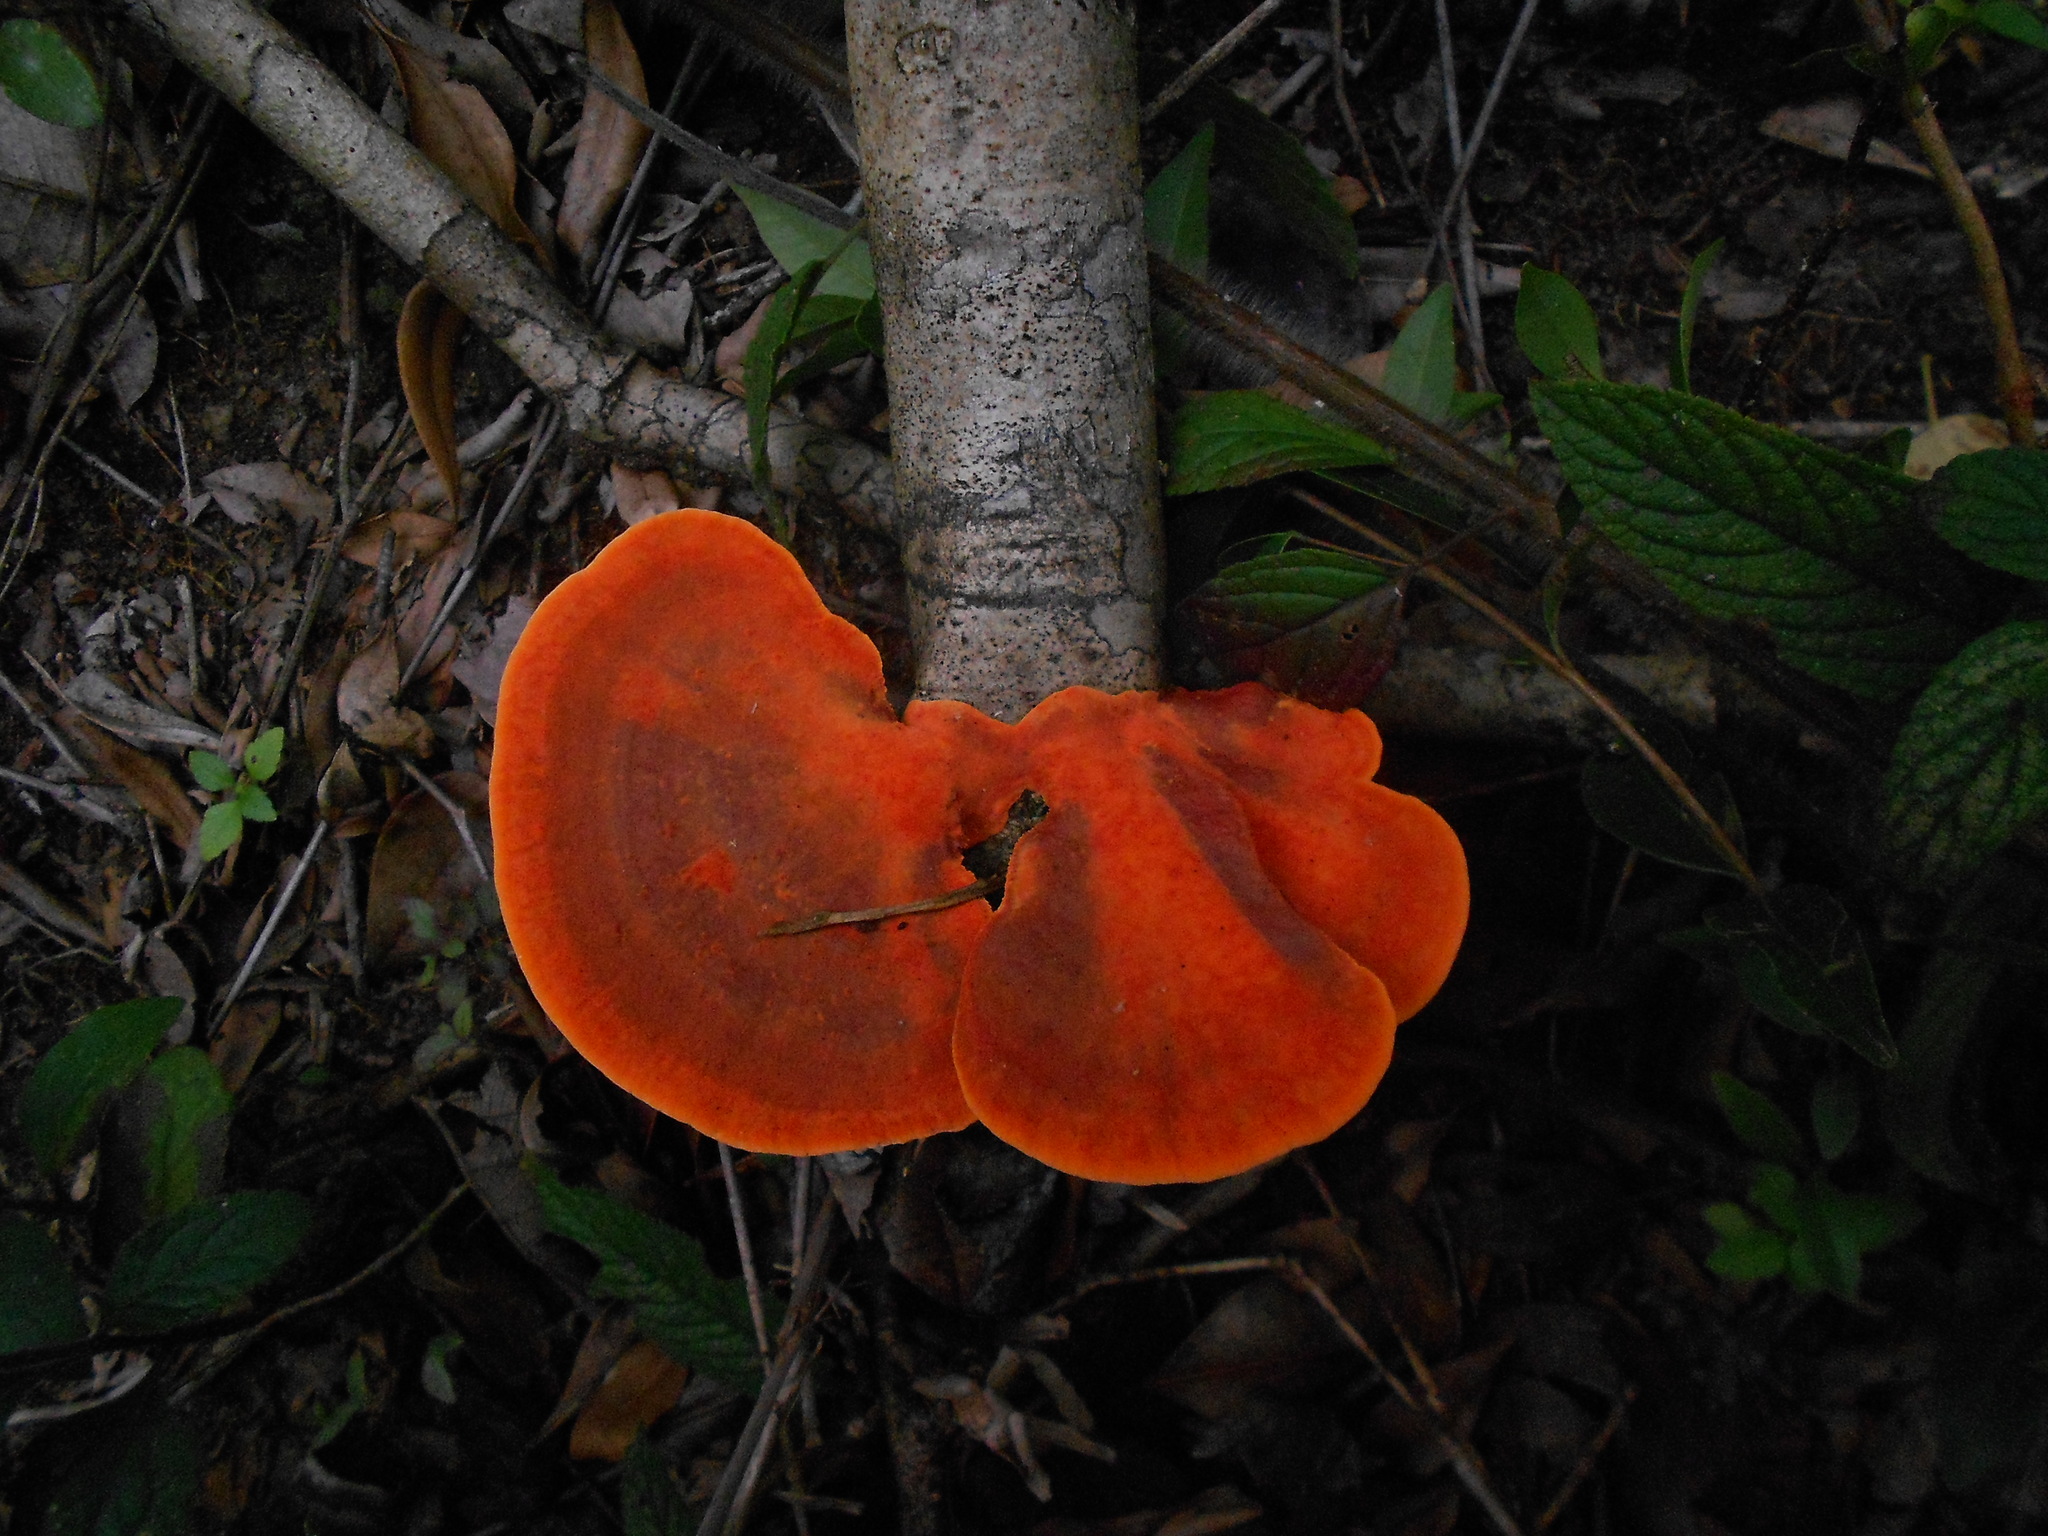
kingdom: Fungi
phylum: Basidiomycota
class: Agaricomycetes
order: Polyporales
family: Polyporaceae
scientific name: Polyporaceae
